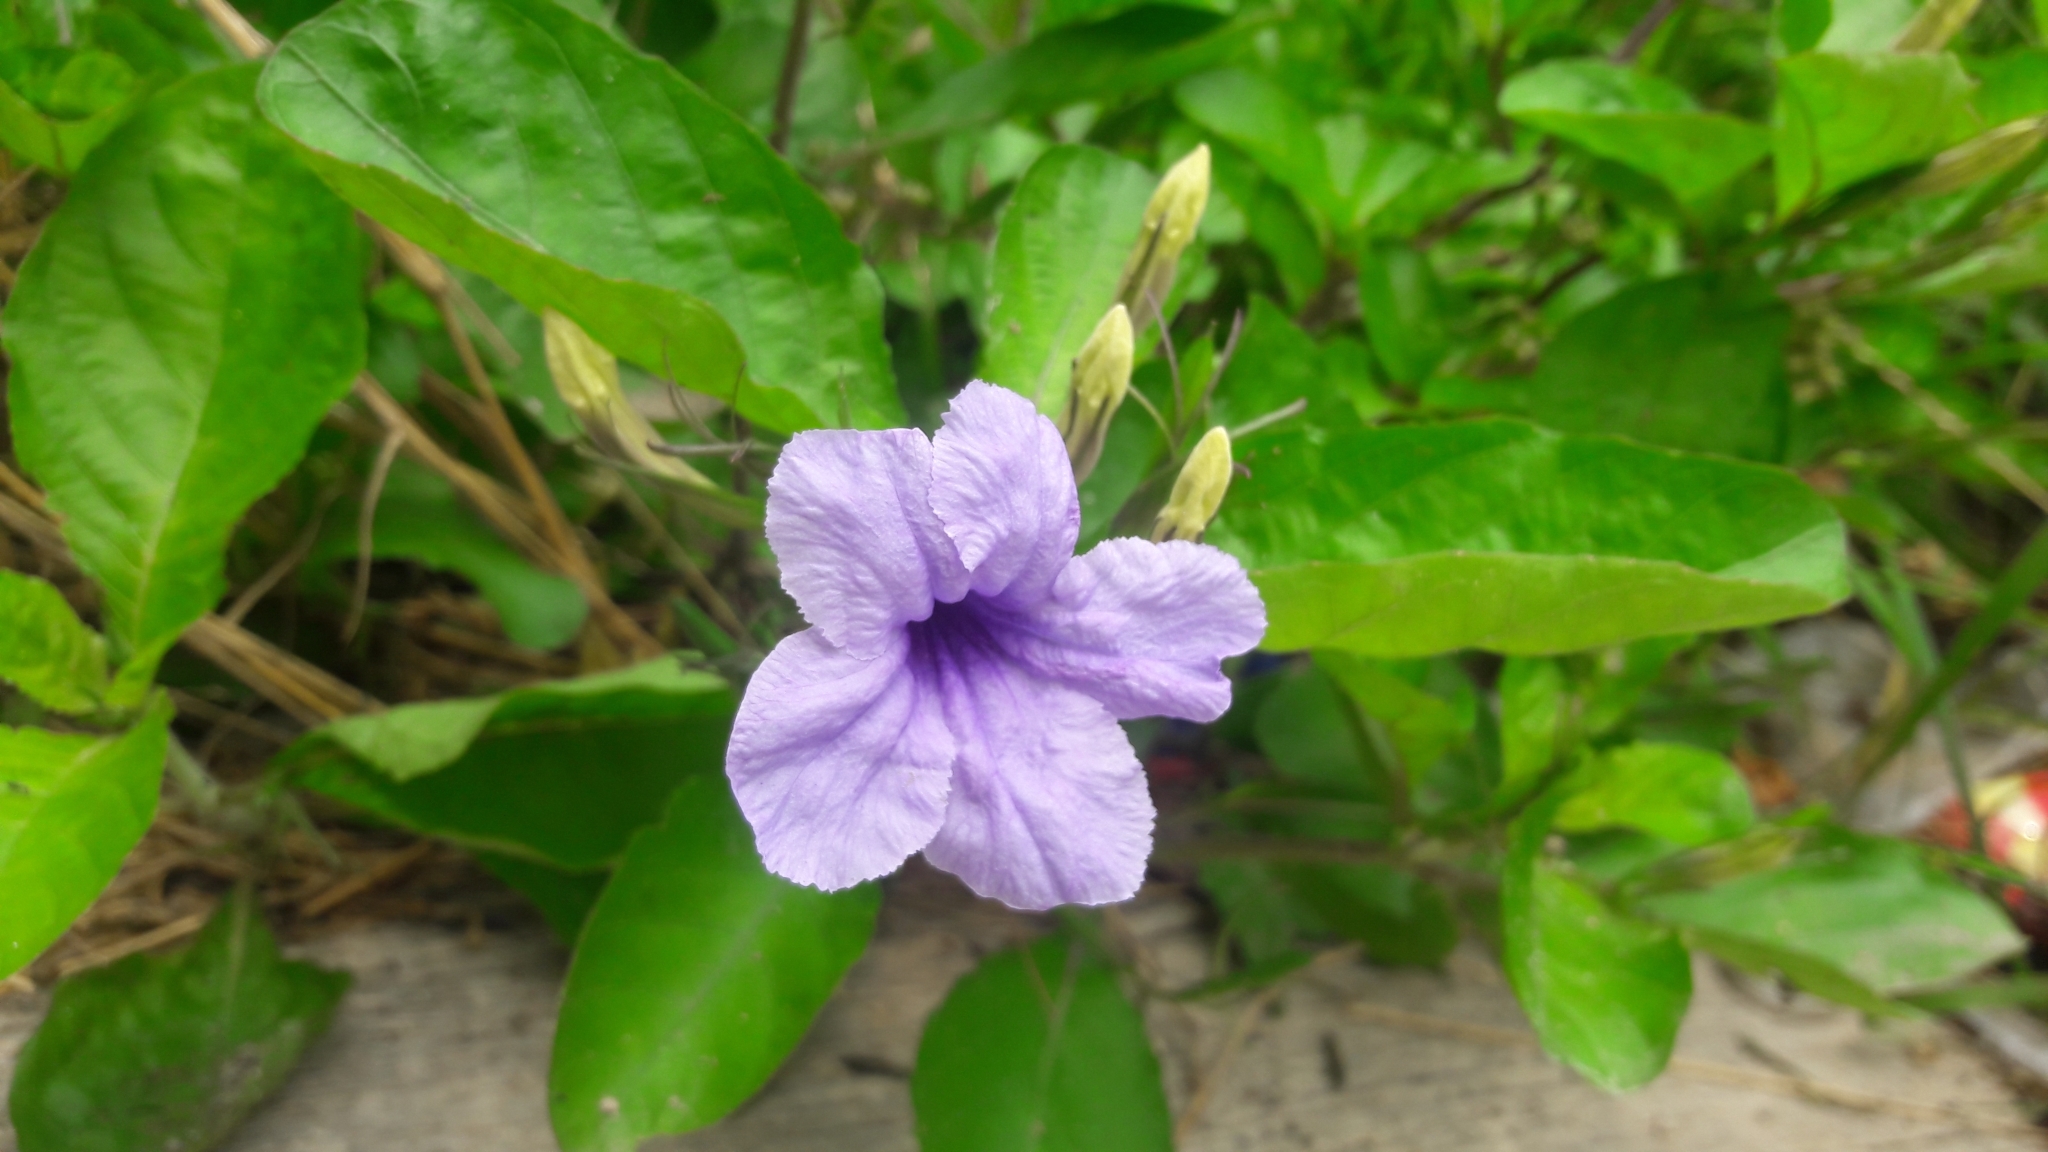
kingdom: Plantae
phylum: Tracheophyta
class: Magnoliopsida
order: Lamiales
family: Acanthaceae
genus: Ruellia
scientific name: Ruellia tuberosa
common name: Devil's bit
